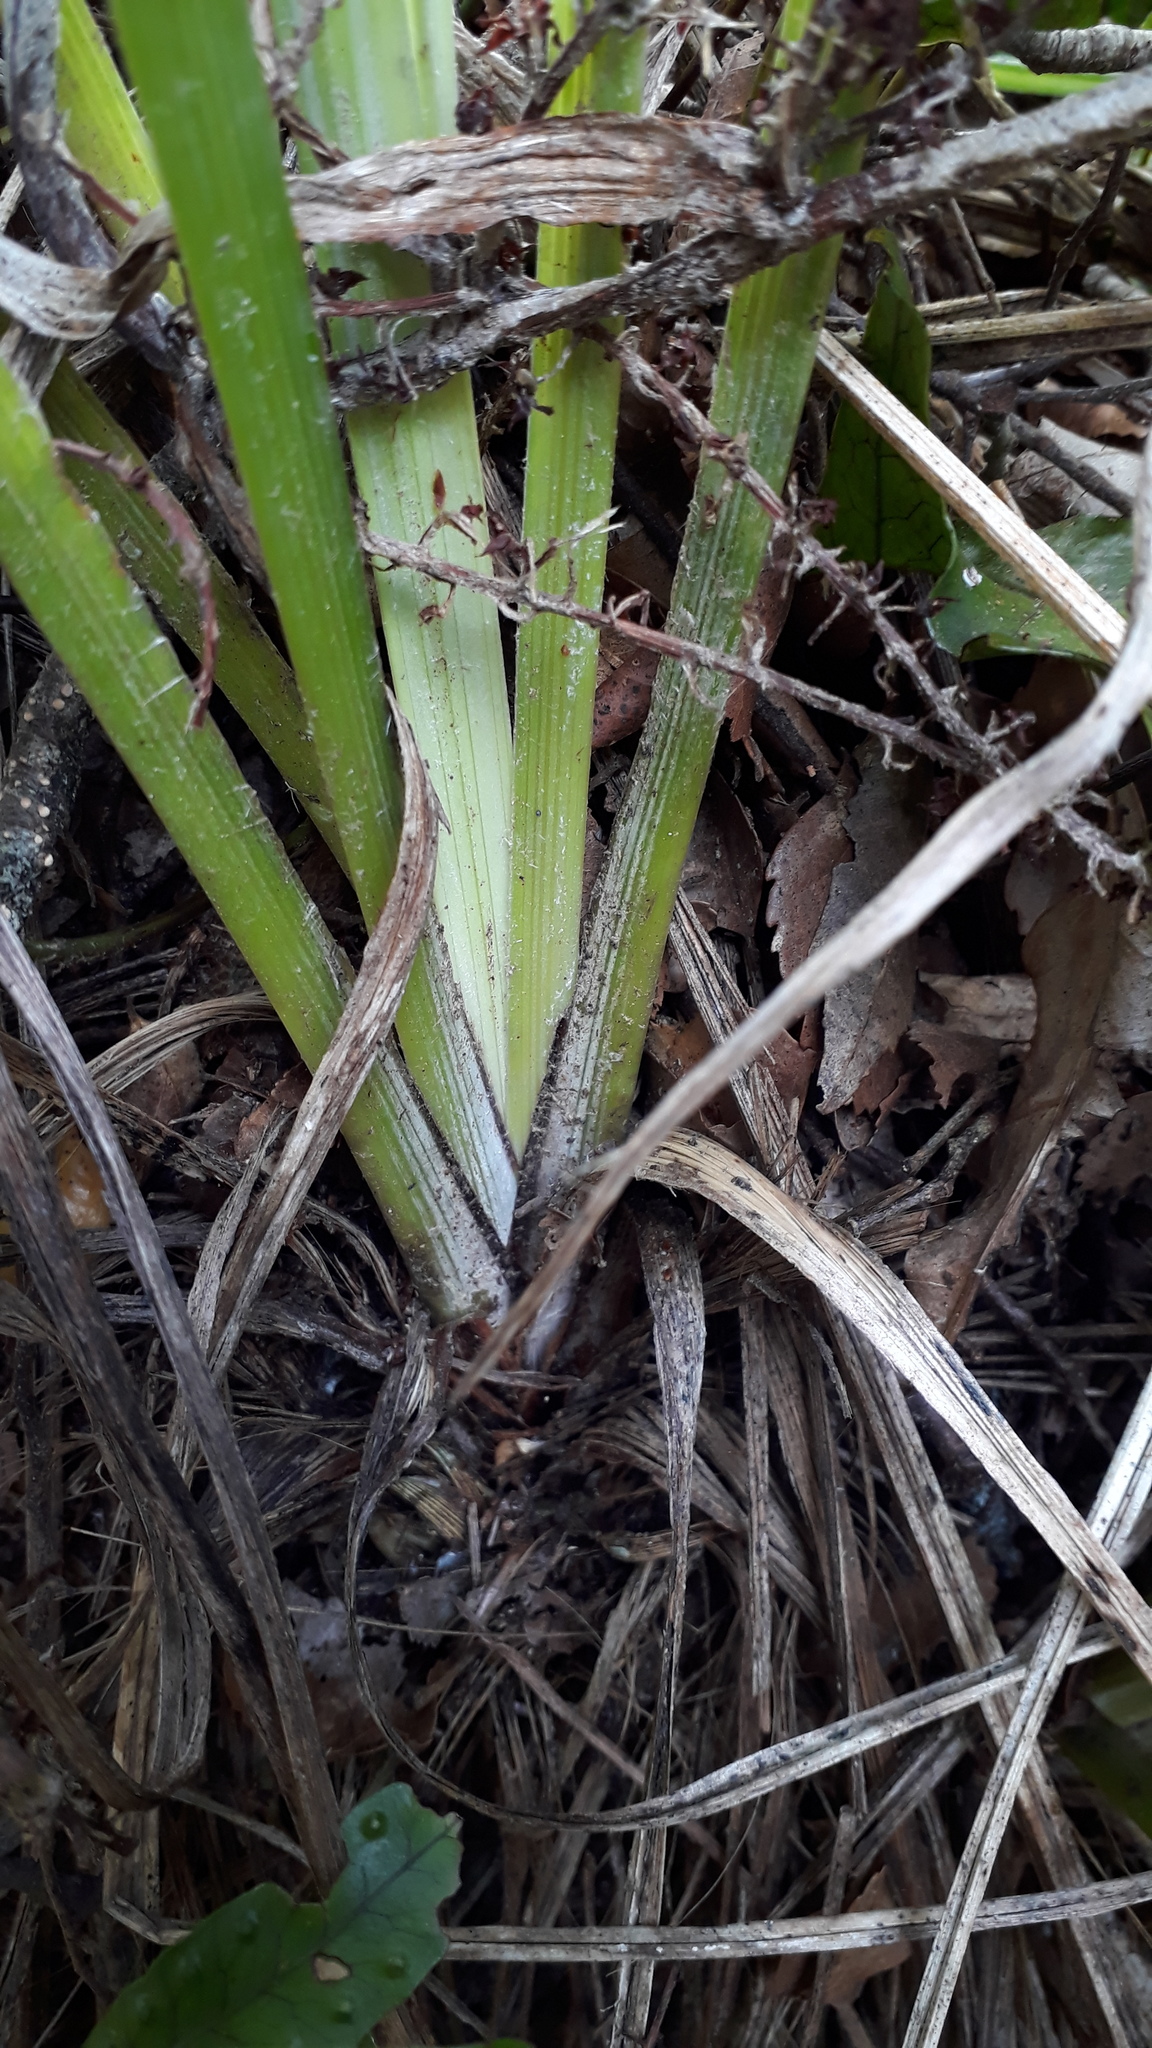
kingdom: Plantae
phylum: Tracheophyta
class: Liliopsida
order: Asparagales
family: Asteliaceae
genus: Astelia
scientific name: Astelia solandri
